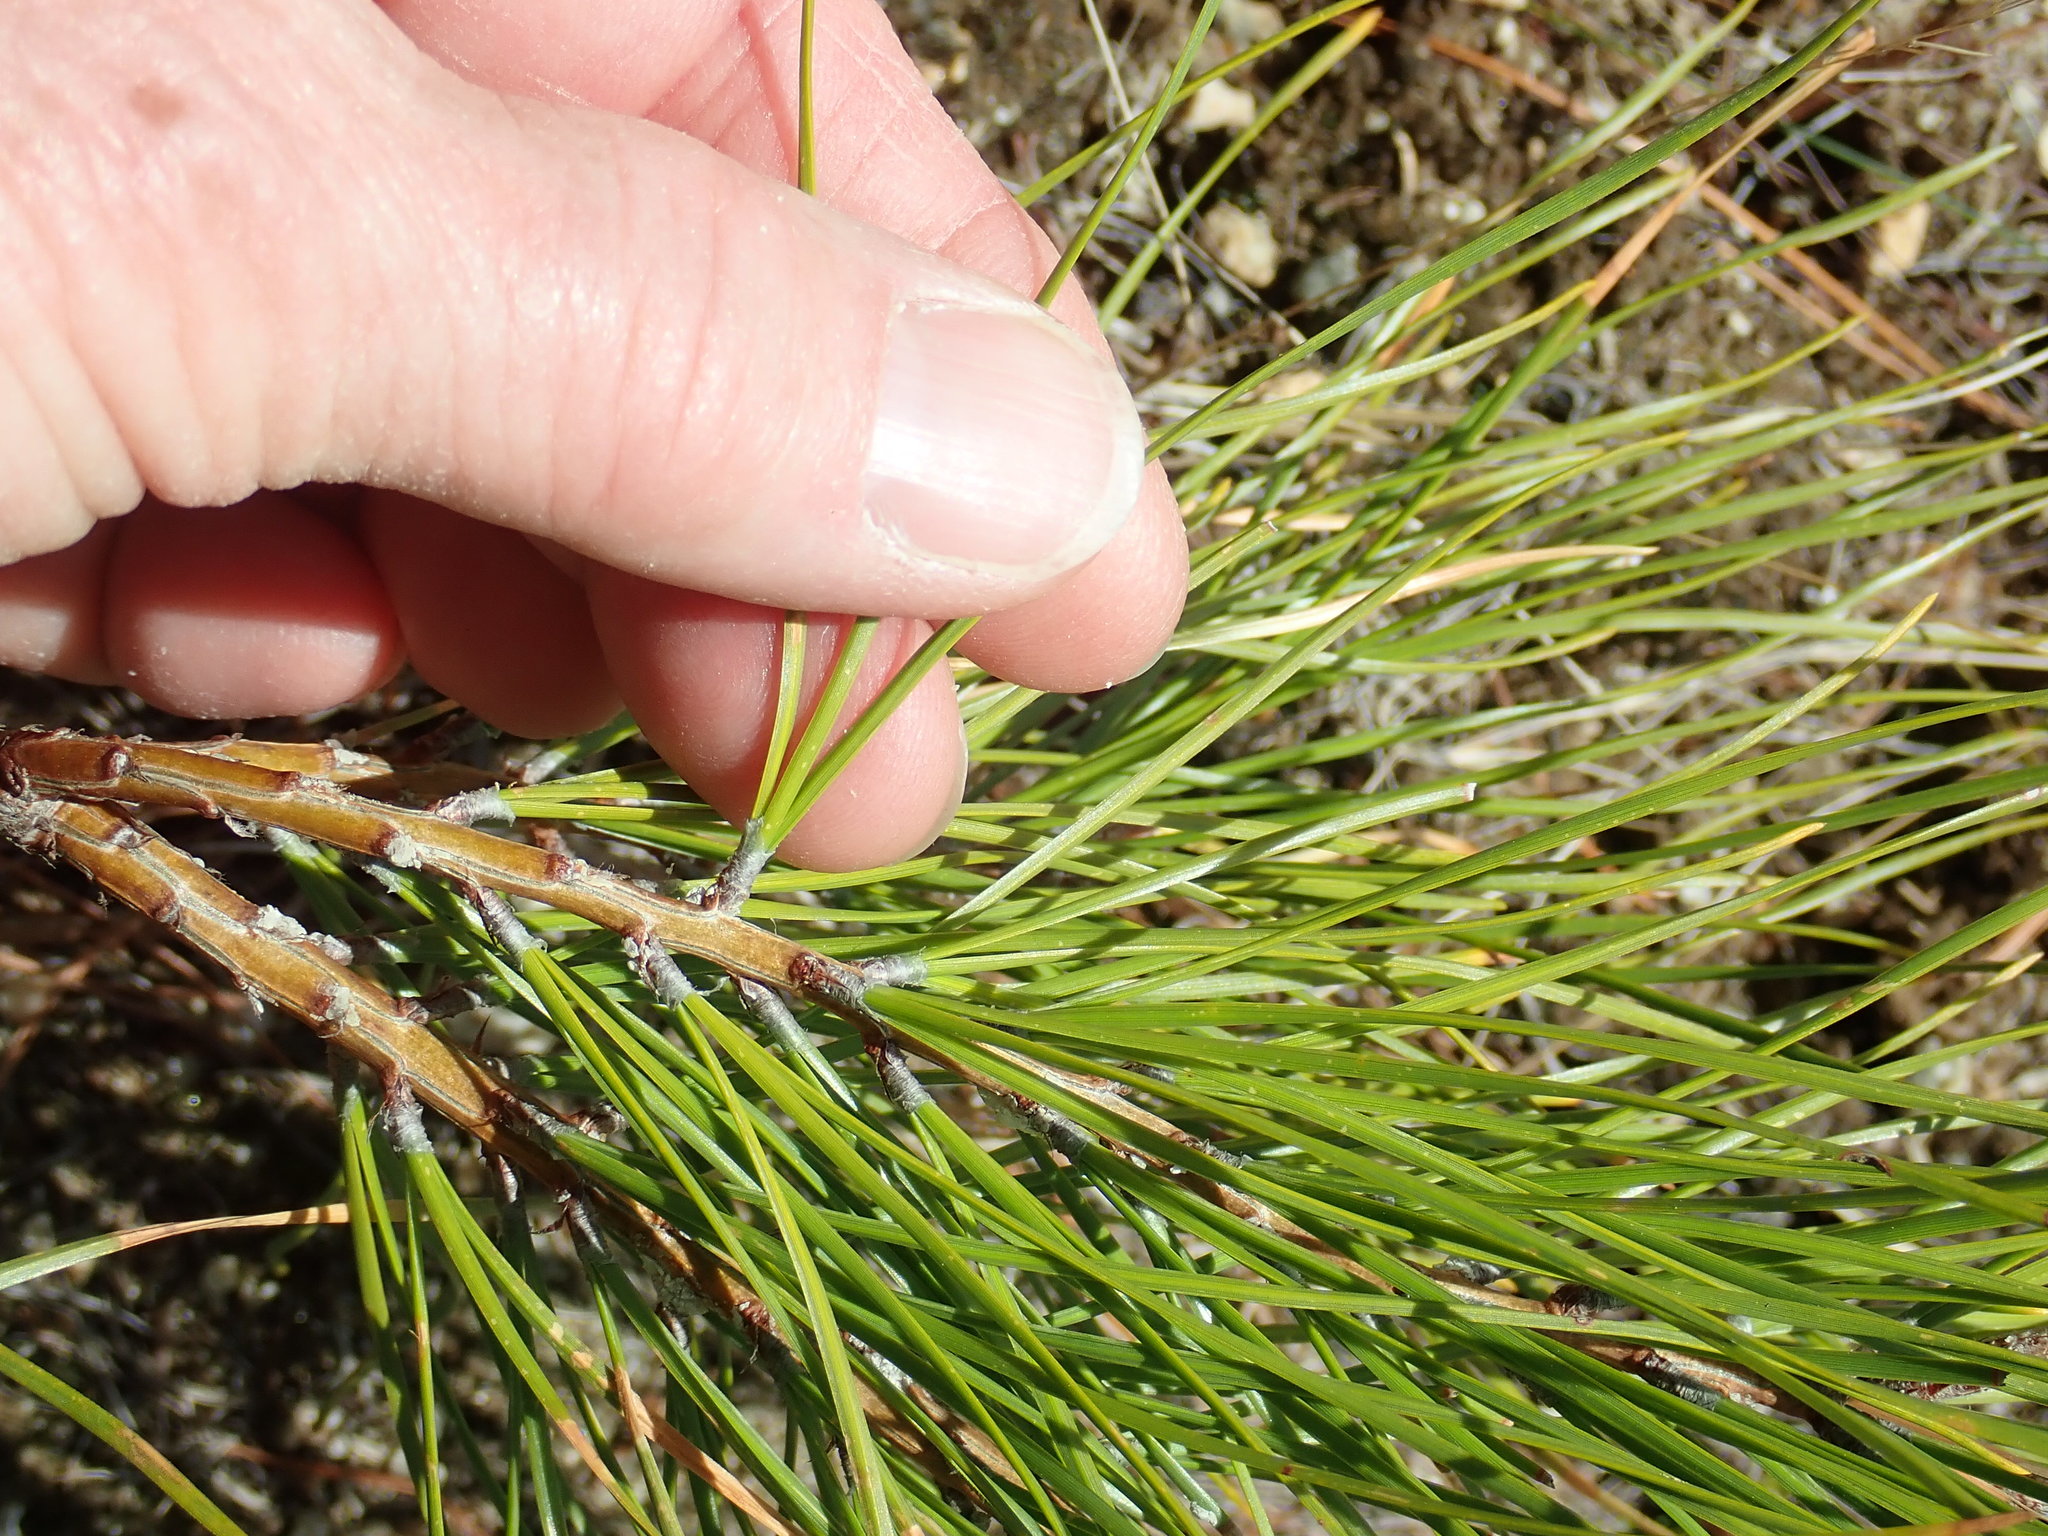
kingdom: Plantae
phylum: Tracheophyta
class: Pinopsida
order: Pinales
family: Pinaceae
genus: Pinus
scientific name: Pinus rigida
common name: Pitch pine
